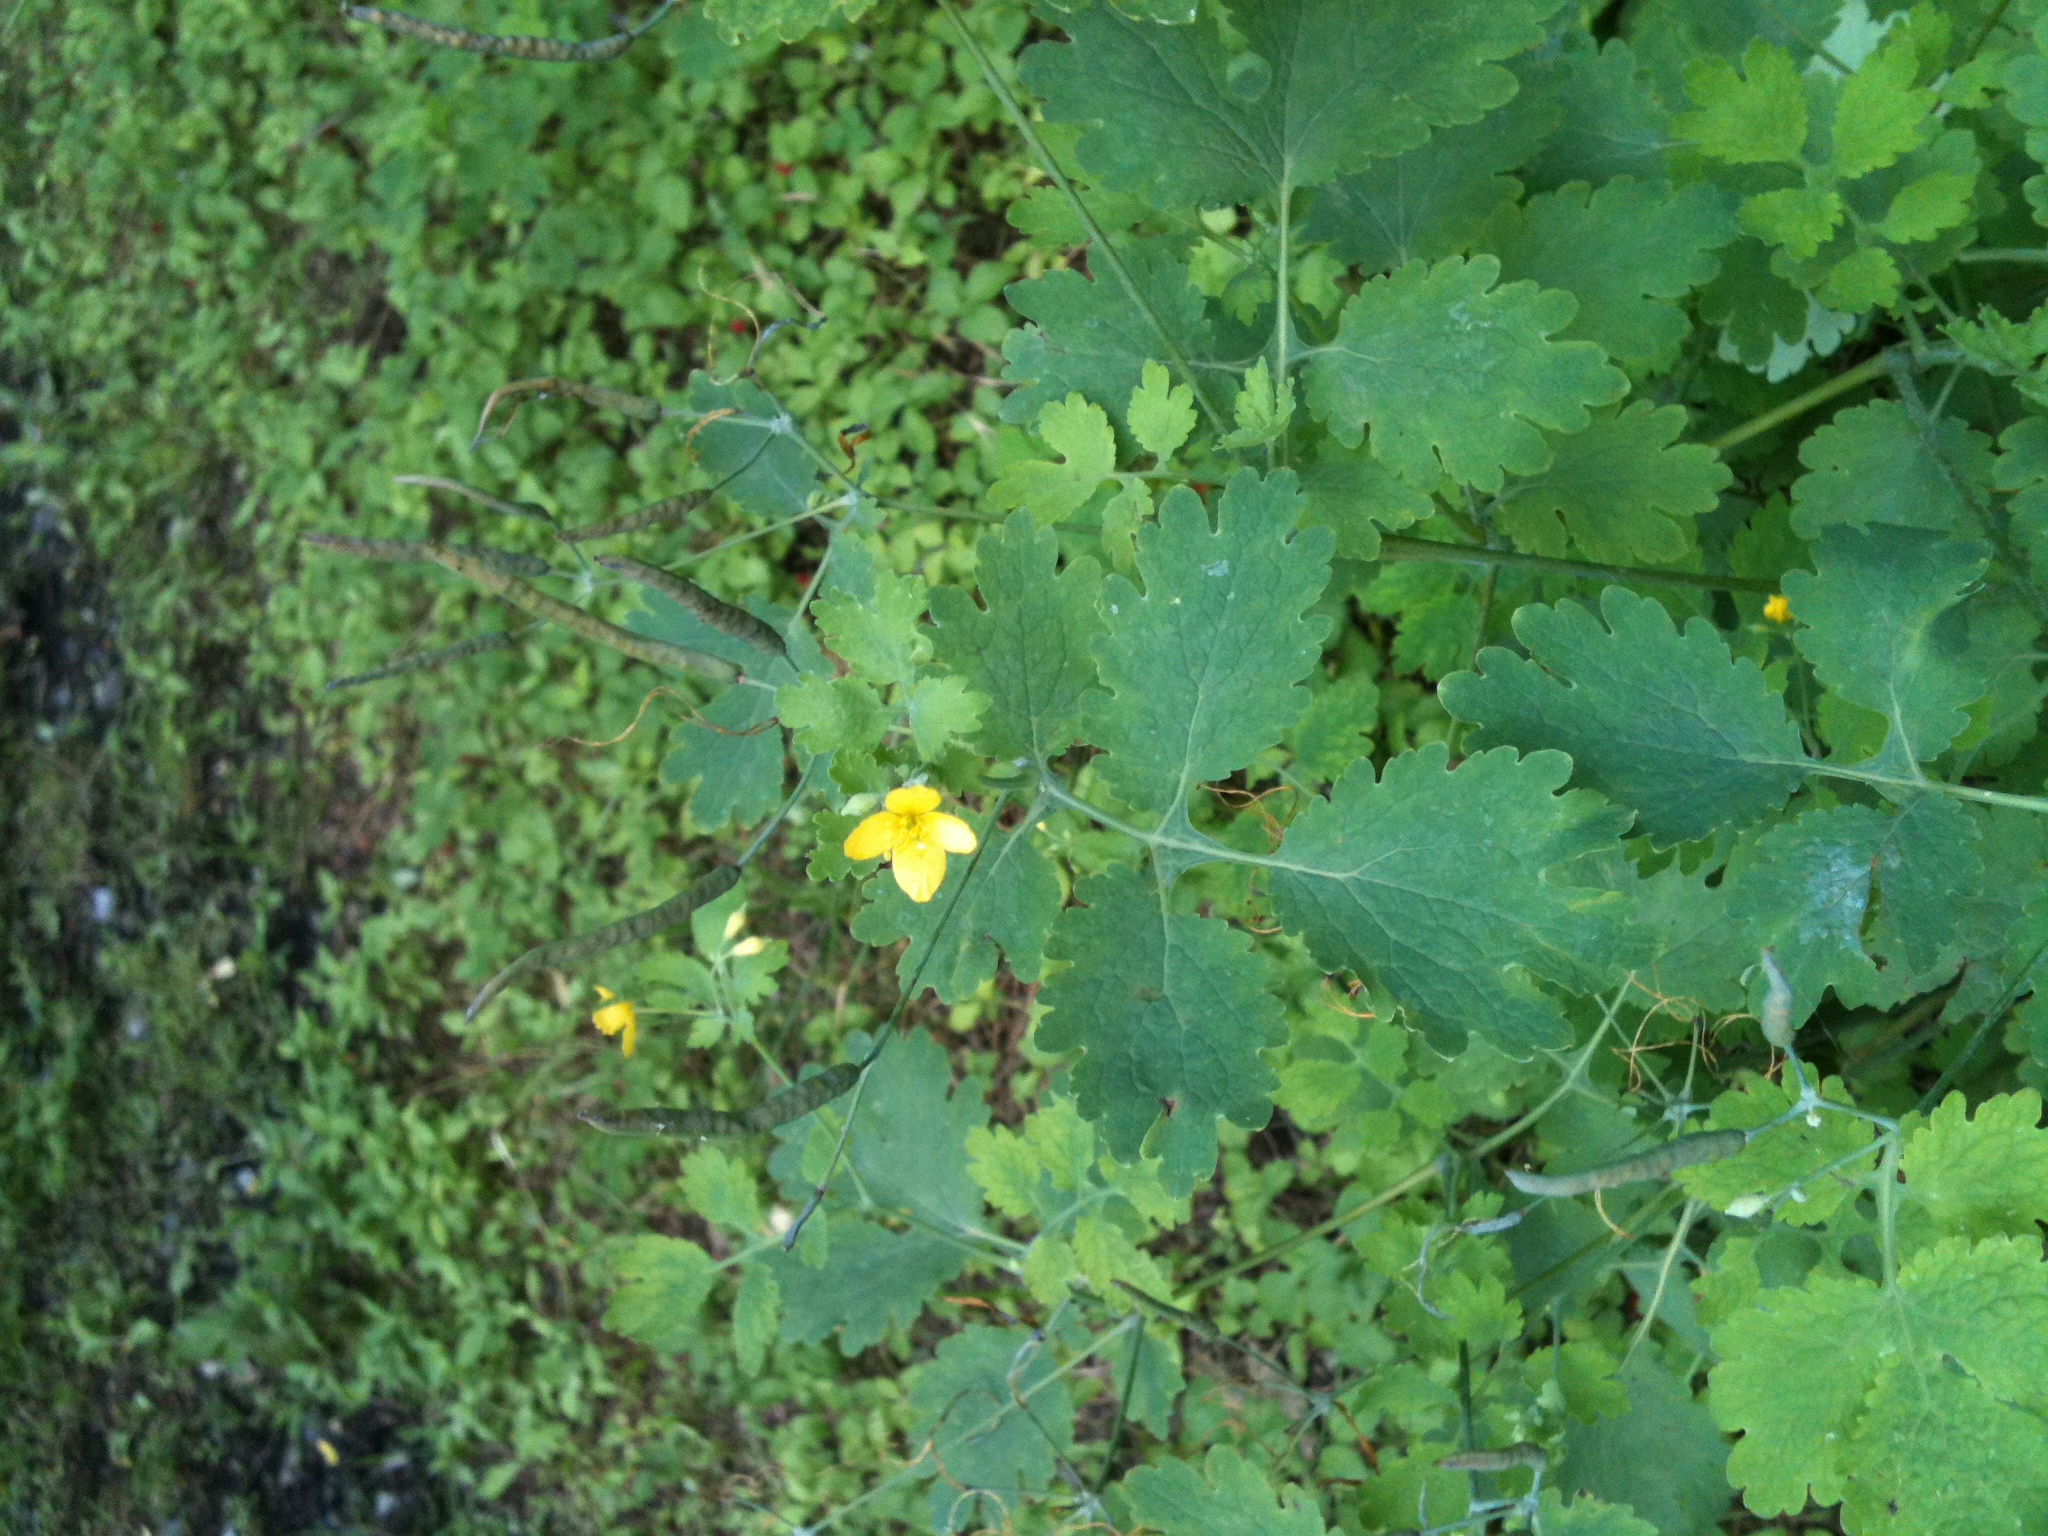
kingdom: Plantae
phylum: Tracheophyta
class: Magnoliopsida
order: Ranunculales
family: Papaveraceae
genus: Chelidonium
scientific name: Chelidonium majus
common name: Greater celandine
